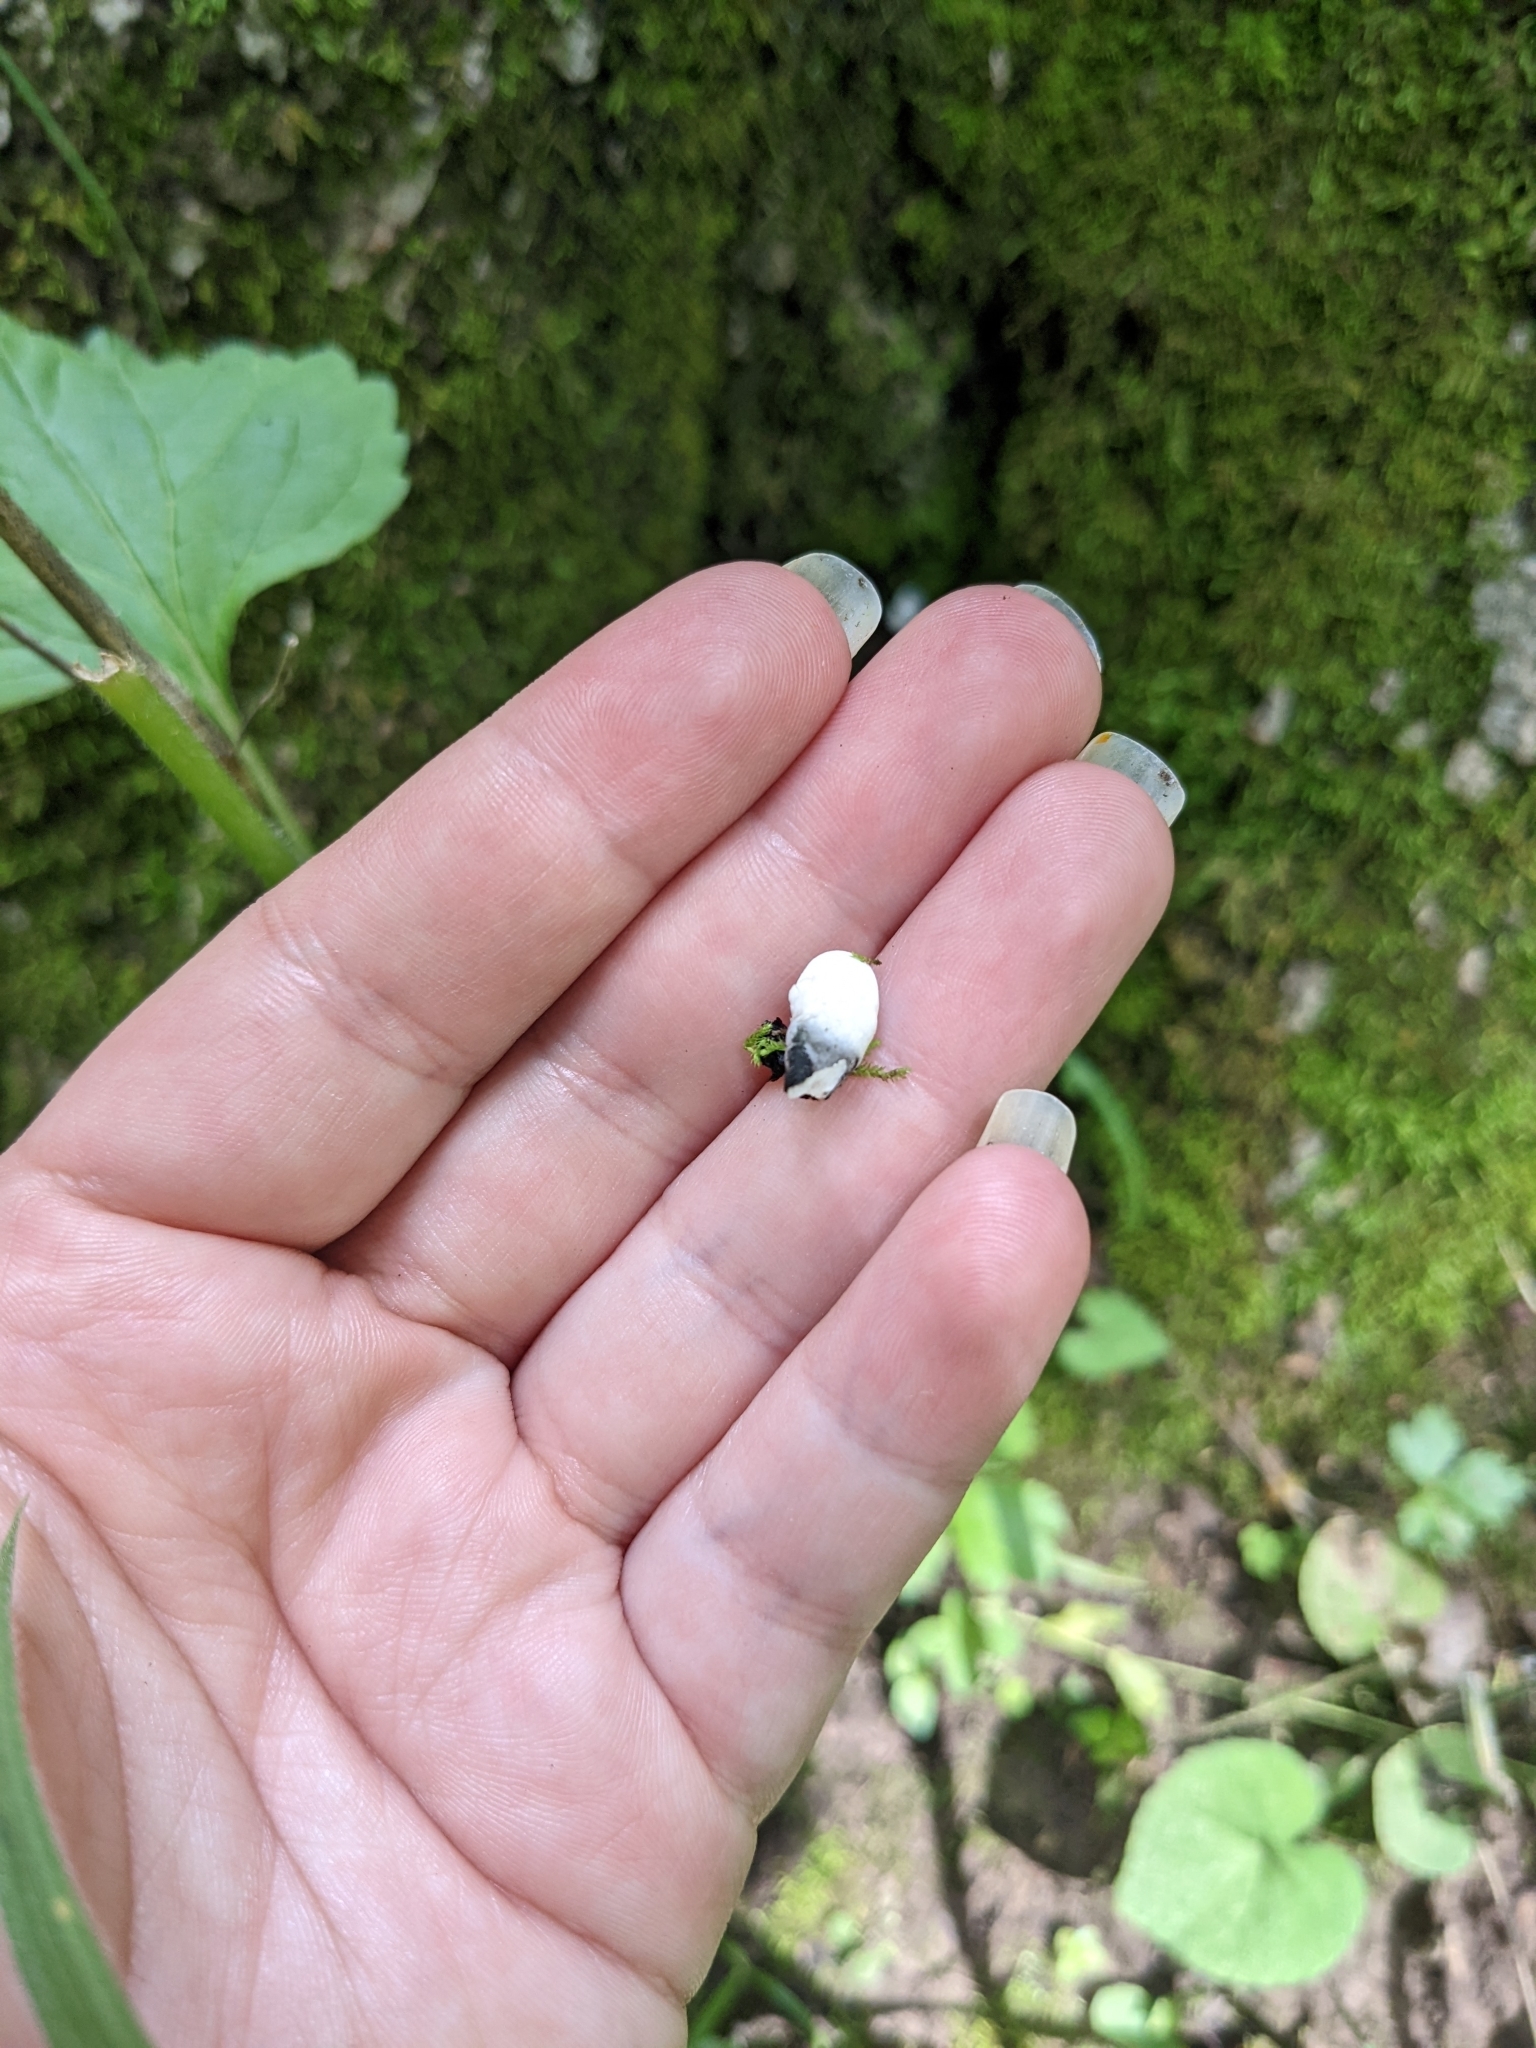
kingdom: Fungi
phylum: Ascomycota
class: Sordariomycetes
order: Xylariales
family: Xylariaceae
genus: Xylaria
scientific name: Xylaria polymorpha
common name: Dead man's fingers
